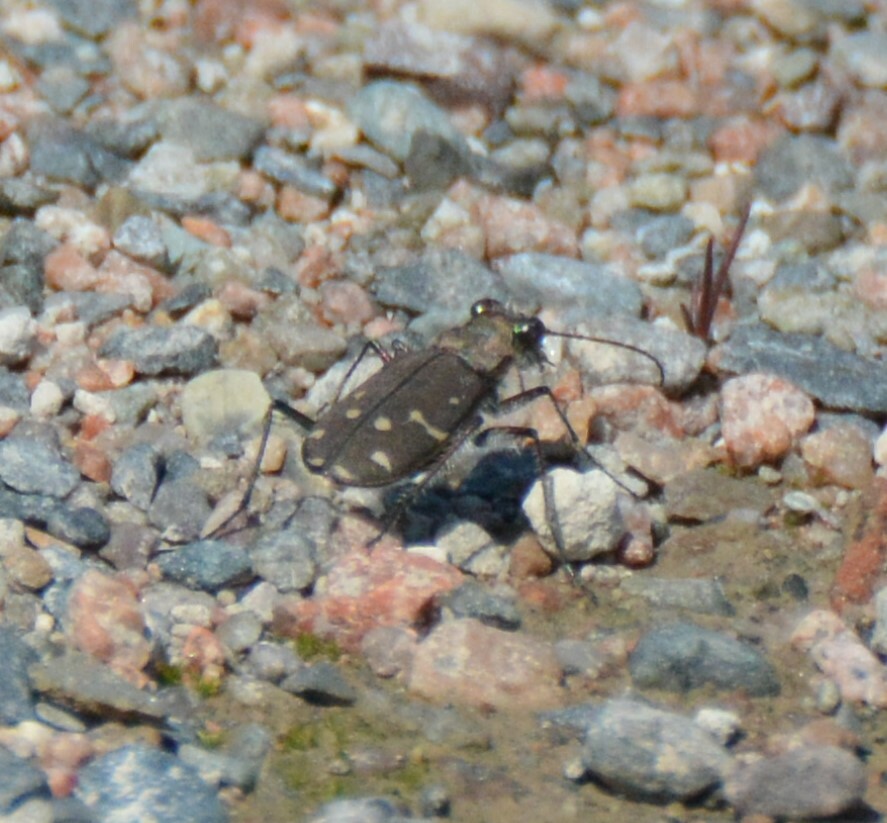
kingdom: Animalia
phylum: Arthropoda
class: Insecta
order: Coleoptera
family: Carabidae
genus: Cicindela
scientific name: Cicindela duodecimguttata
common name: Twelve-spotted tiger beetle
